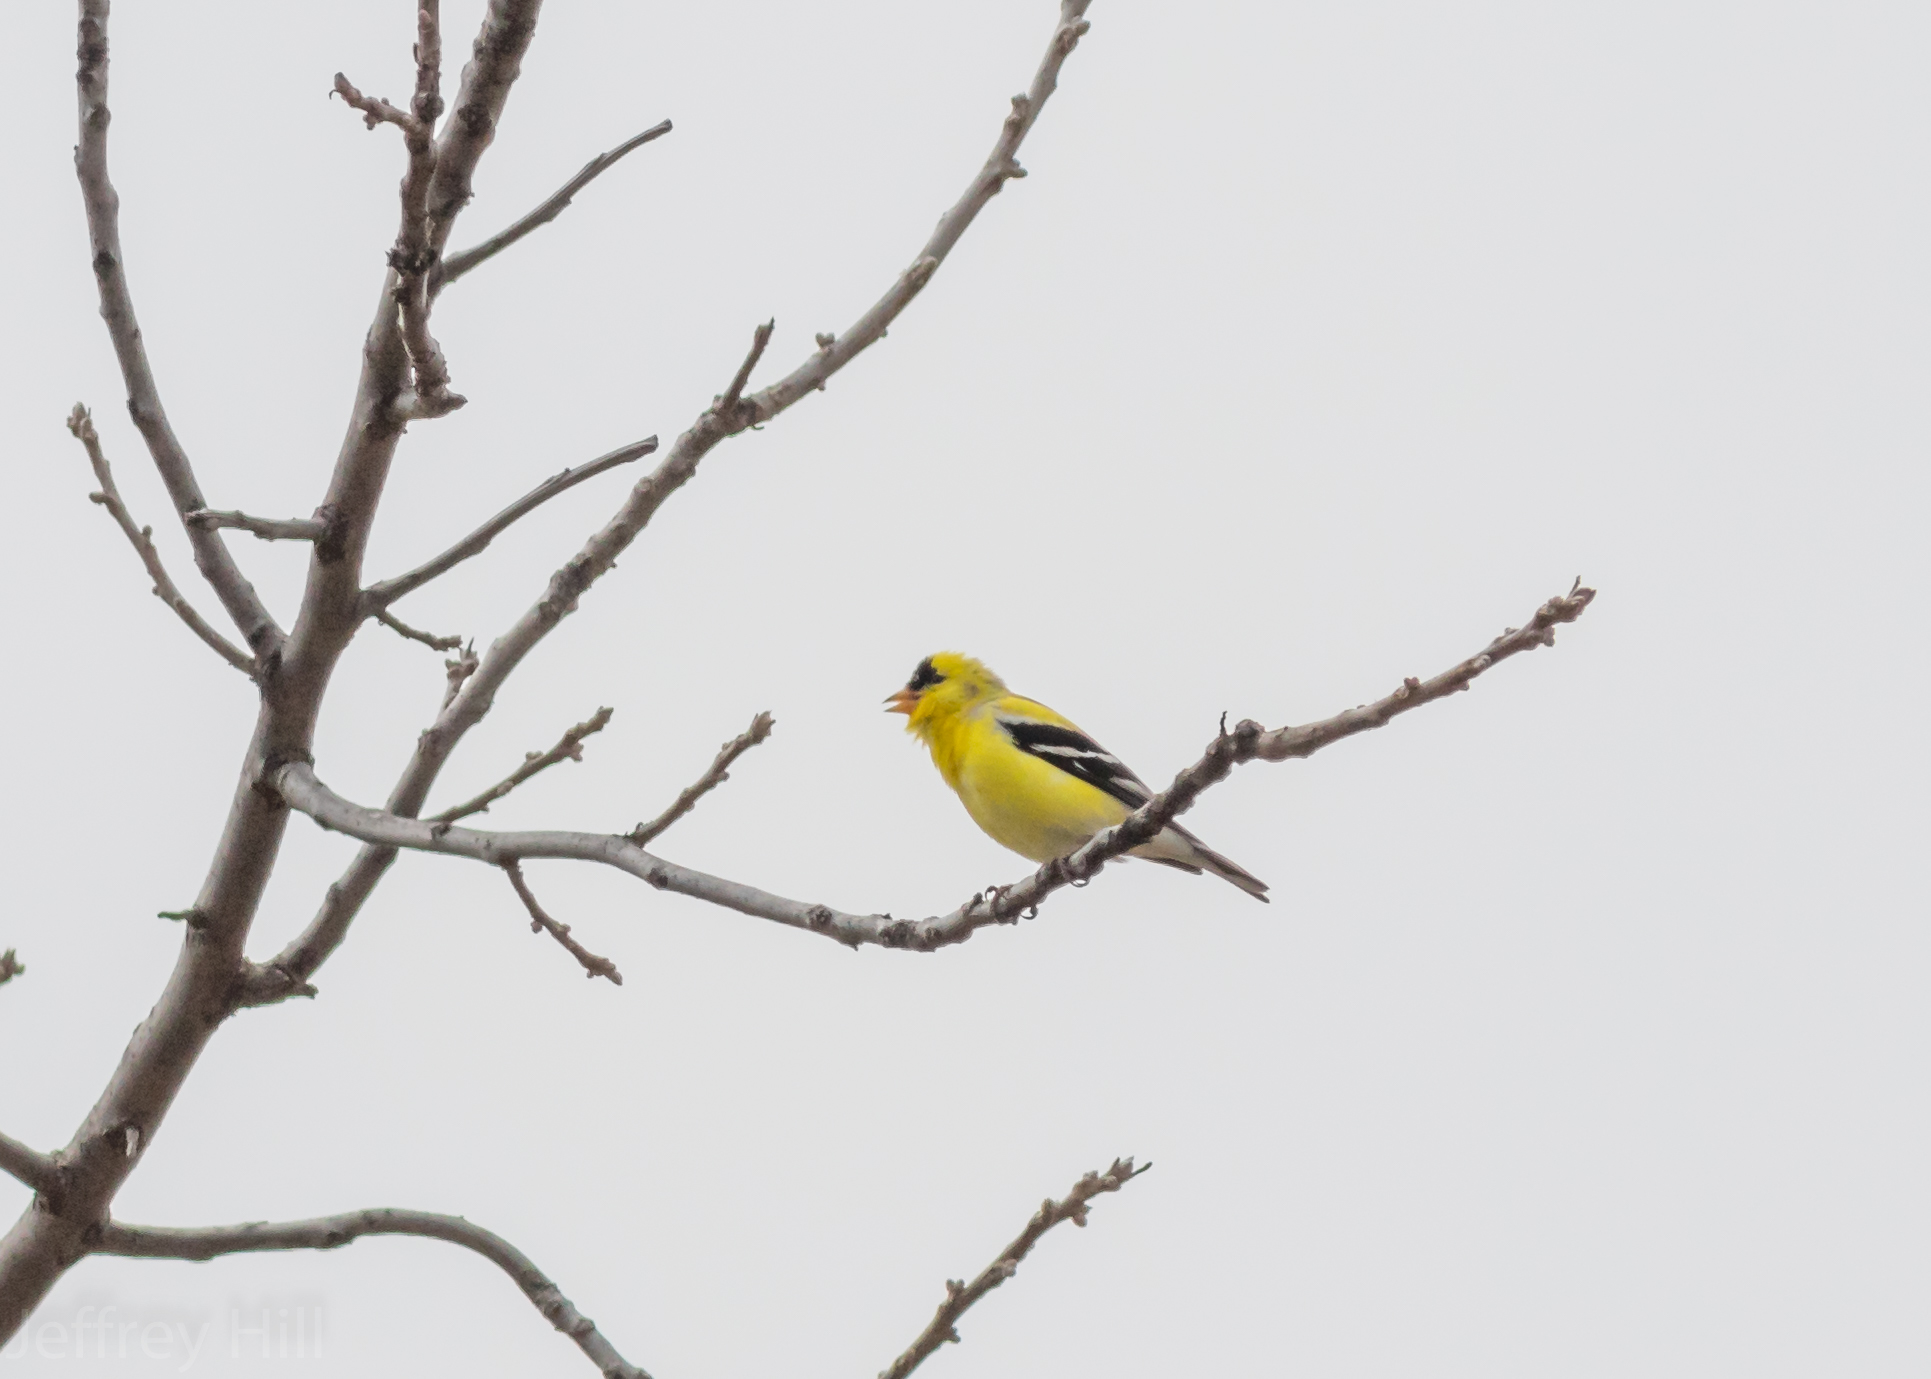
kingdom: Animalia
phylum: Chordata
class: Aves
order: Passeriformes
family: Fringillidae
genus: Spinus
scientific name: Spinus tristis
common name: American goldfinch
